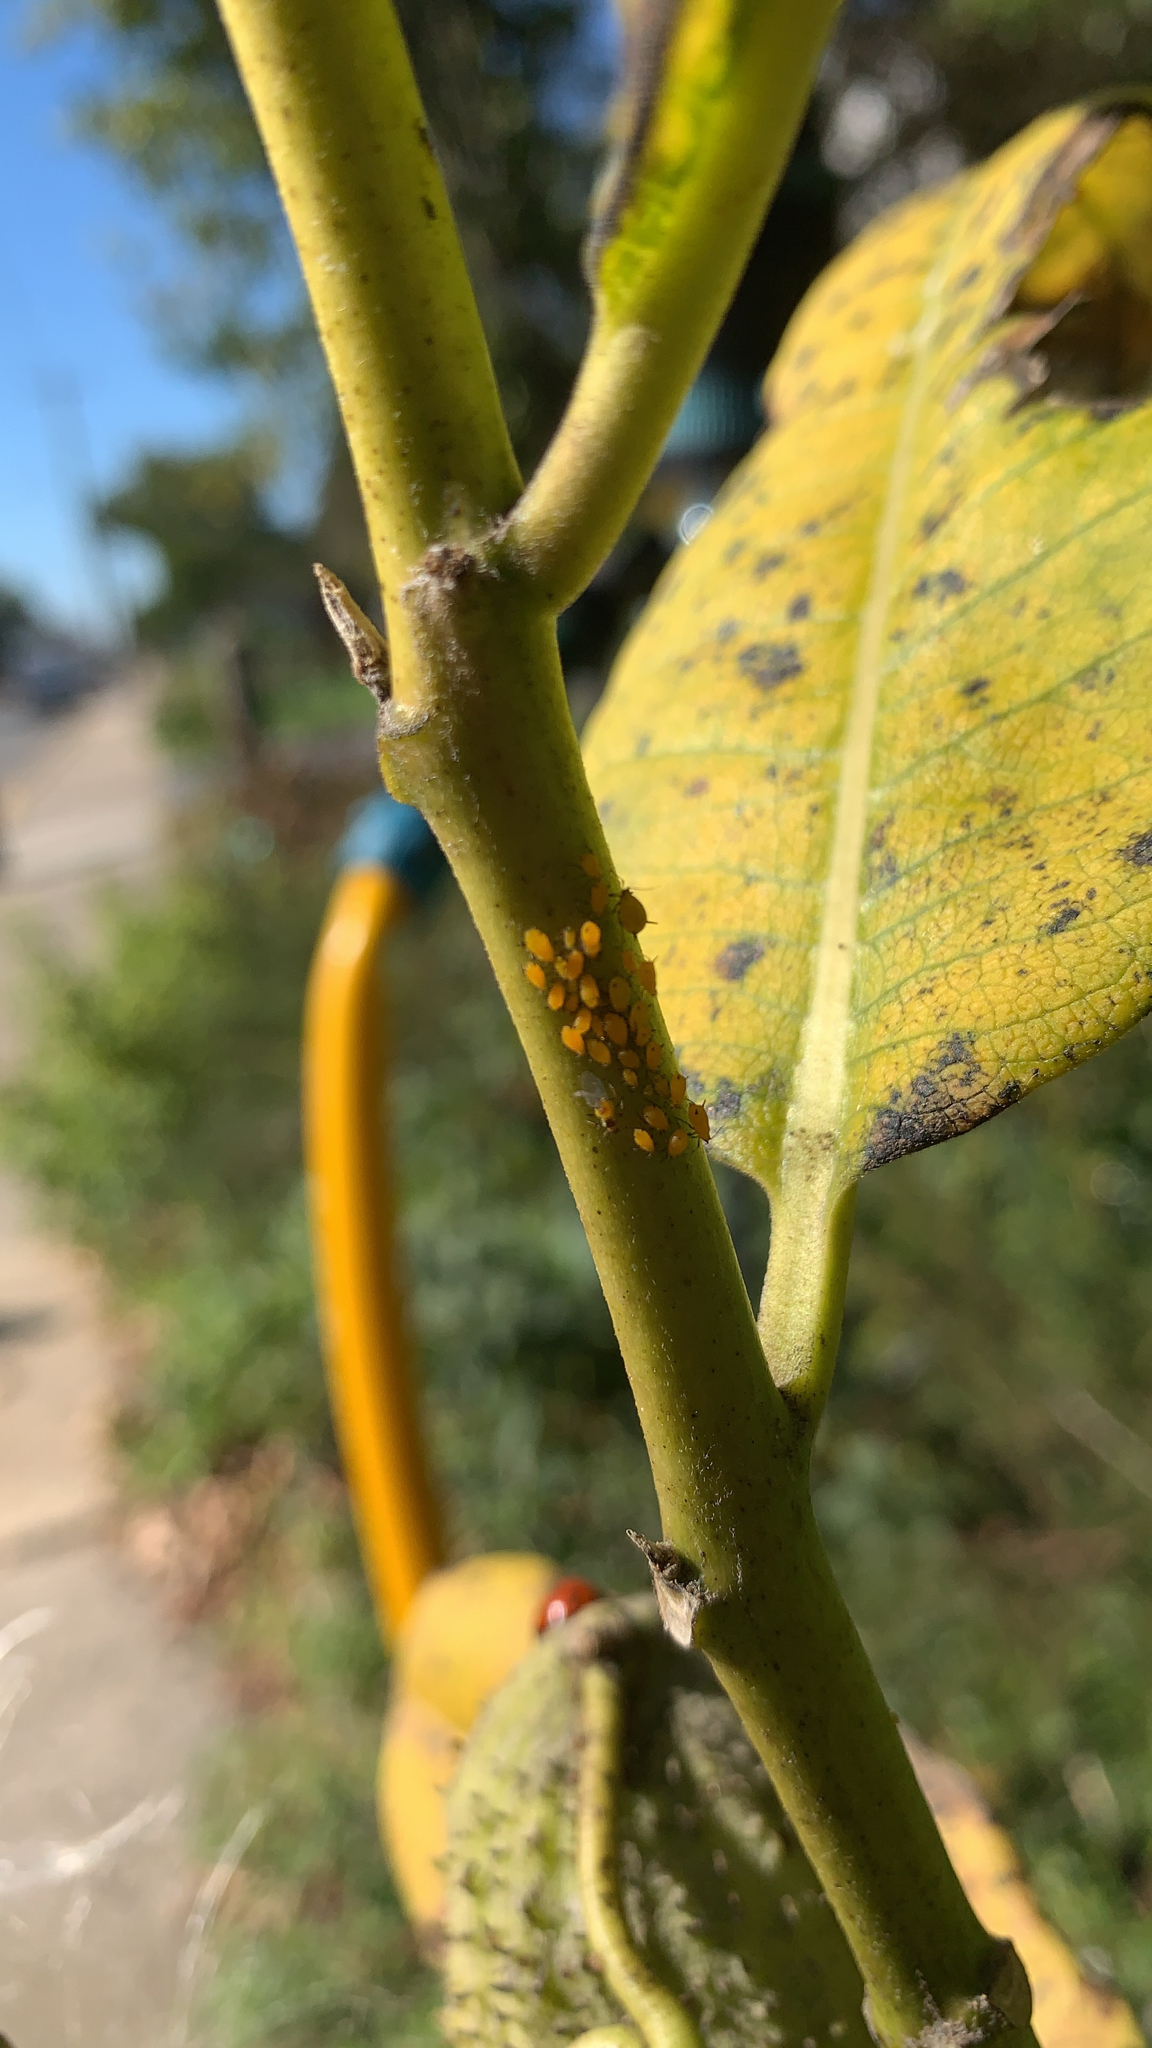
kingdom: Animalia
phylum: Arthropoda
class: Insecta
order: Hemiptera
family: Aphididae
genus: Aphis
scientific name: Aphis nerii
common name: Oleander aphid
